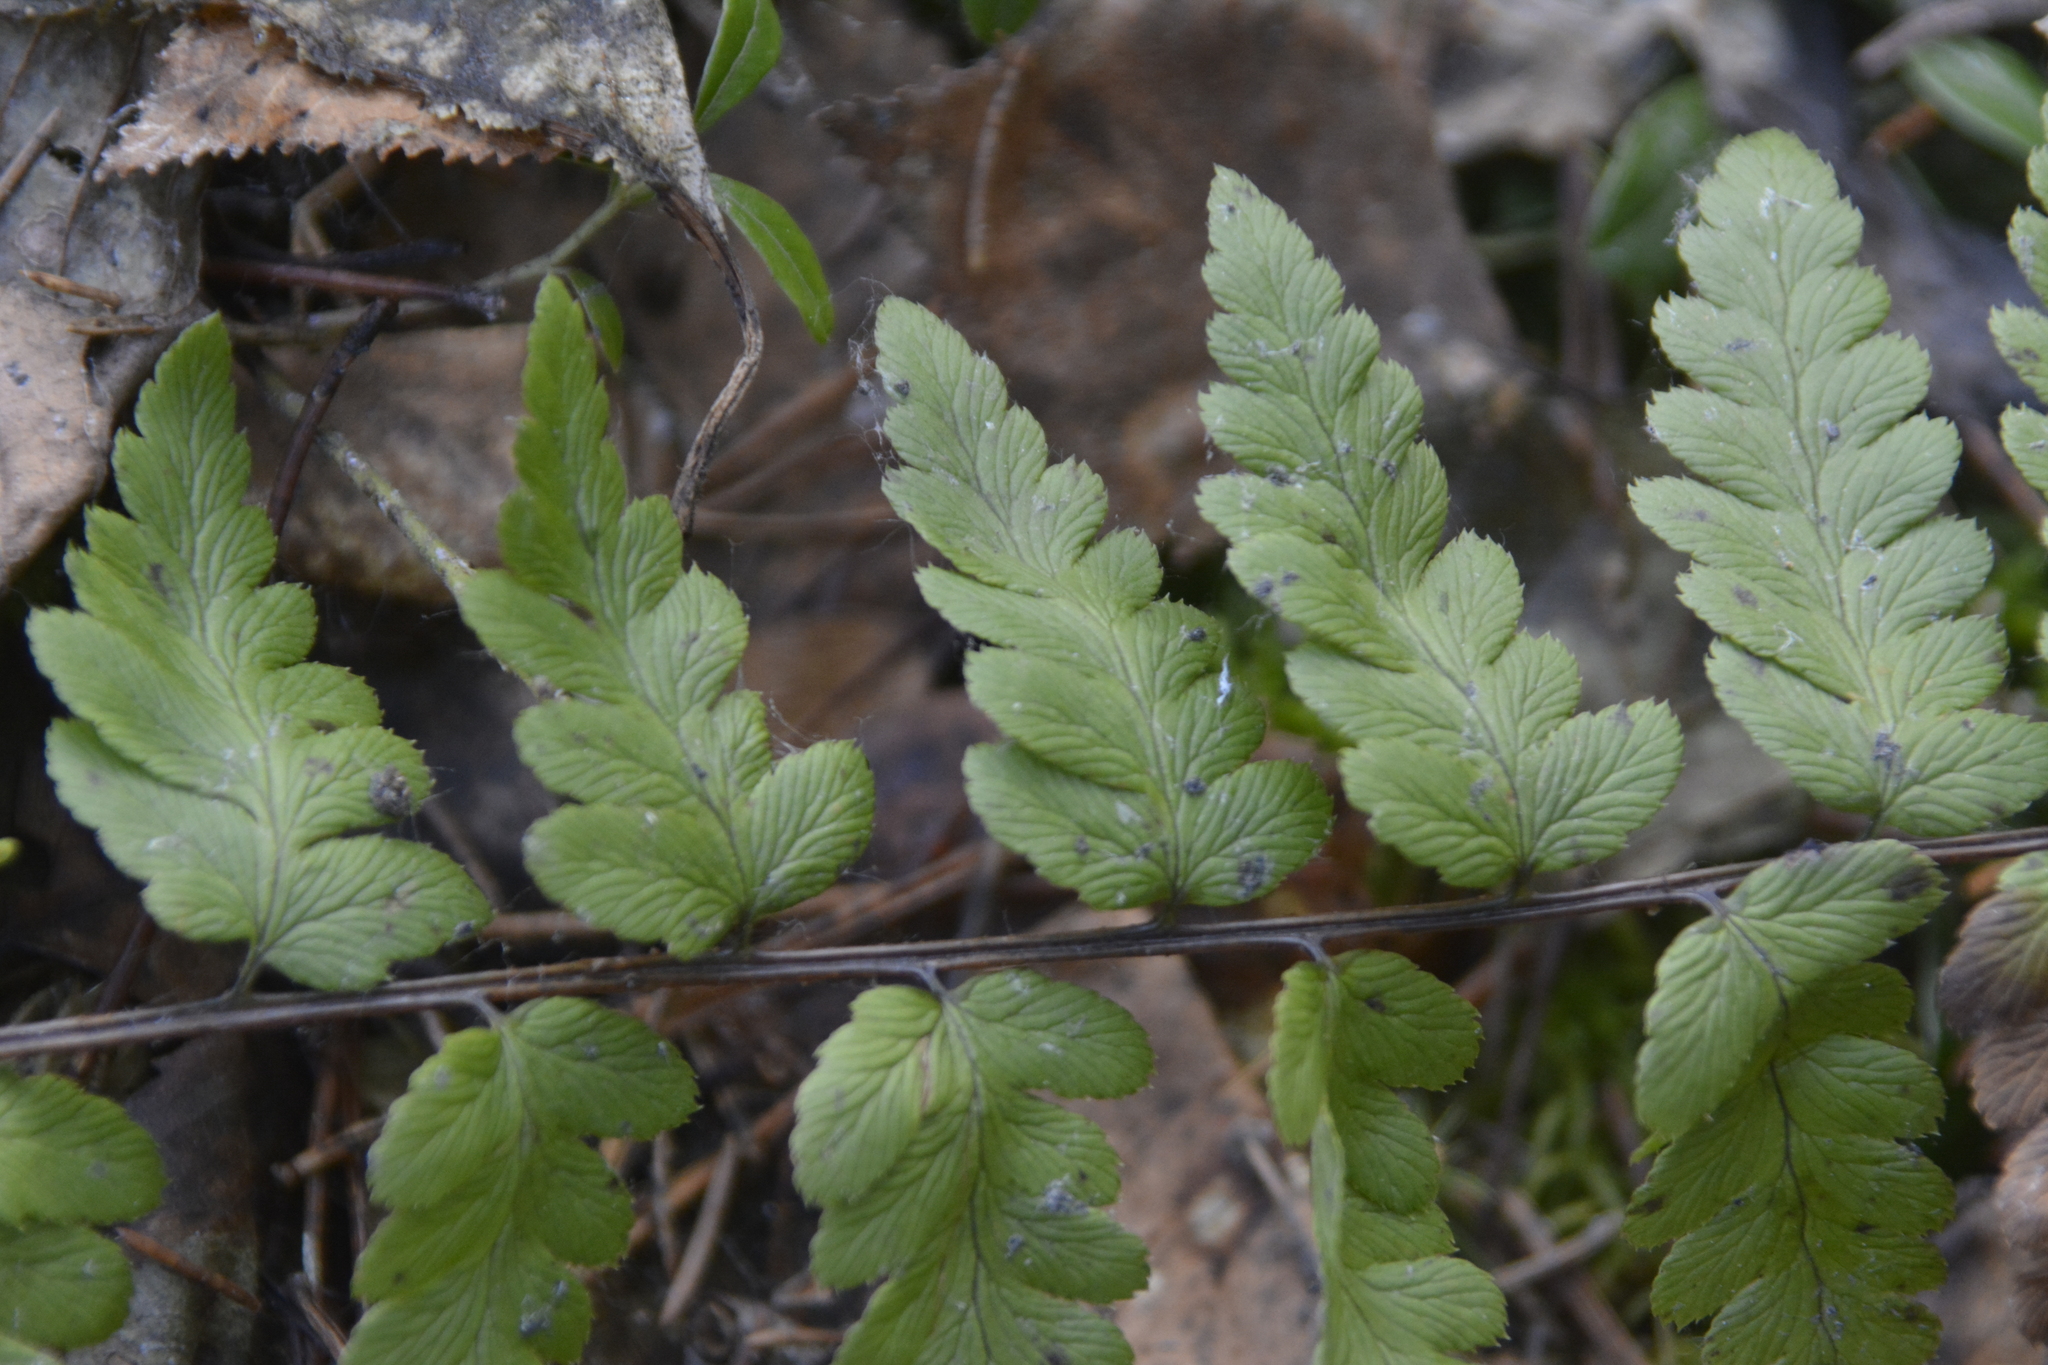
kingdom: Plantae
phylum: Tracheophyta
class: Polypodiopsida
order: Polypodiales
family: Dryopteridaceae
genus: Dryopteris
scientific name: Dryopteris cristata
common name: Crested wood fern
